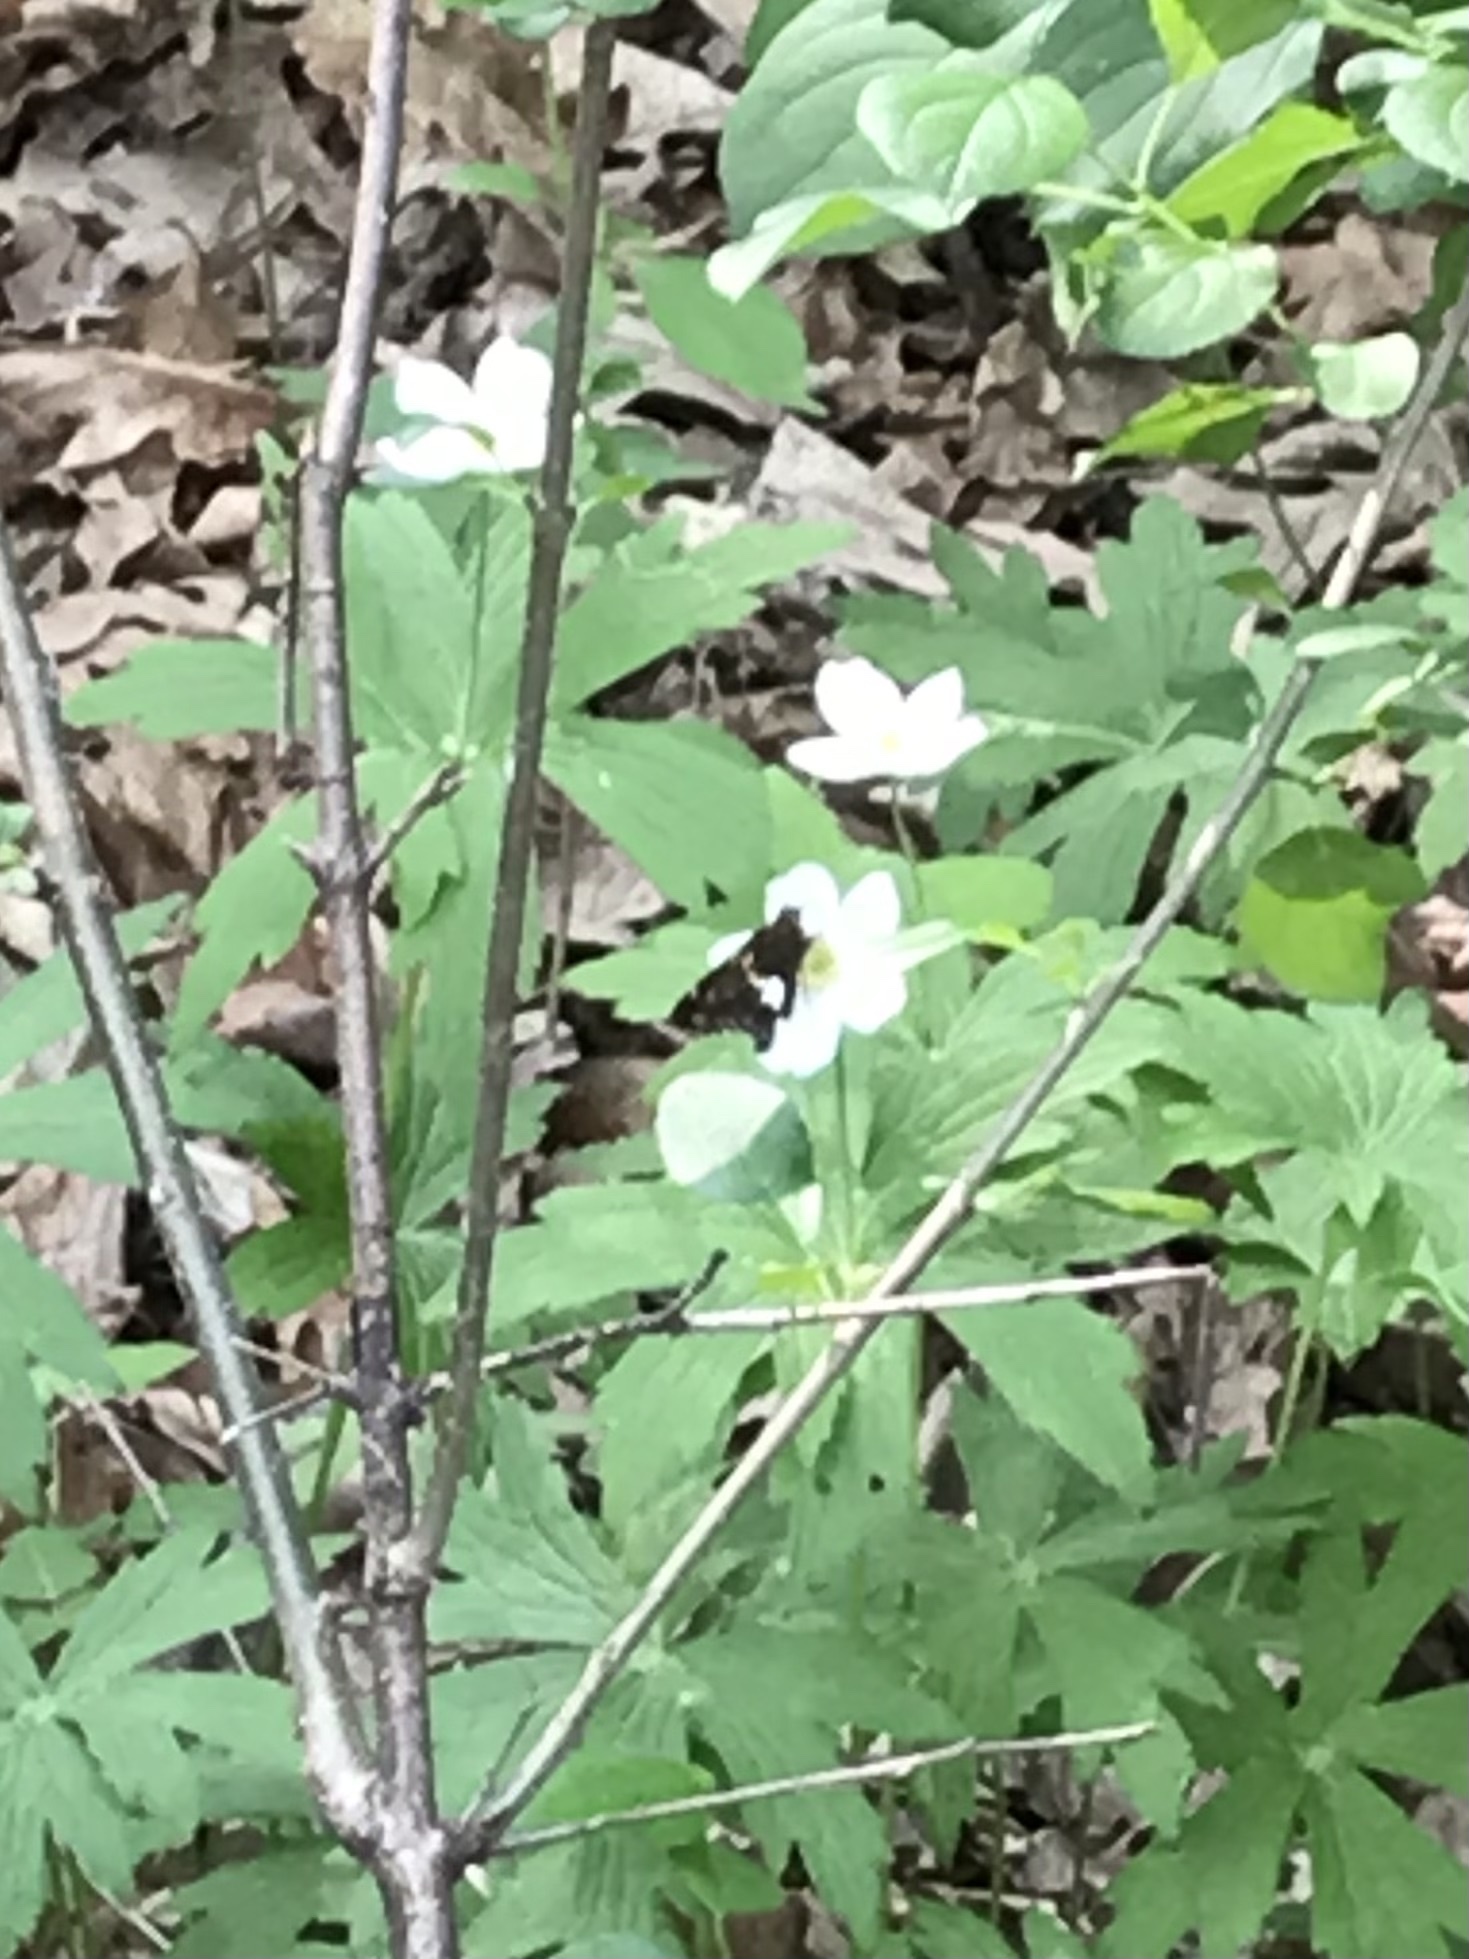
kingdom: Animalia
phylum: Arthropoda
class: Insecta
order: Lepidoptera
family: Hesperiidae
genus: Epargyreus
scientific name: Epargyreus clarus
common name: Silver-spotted skipper
